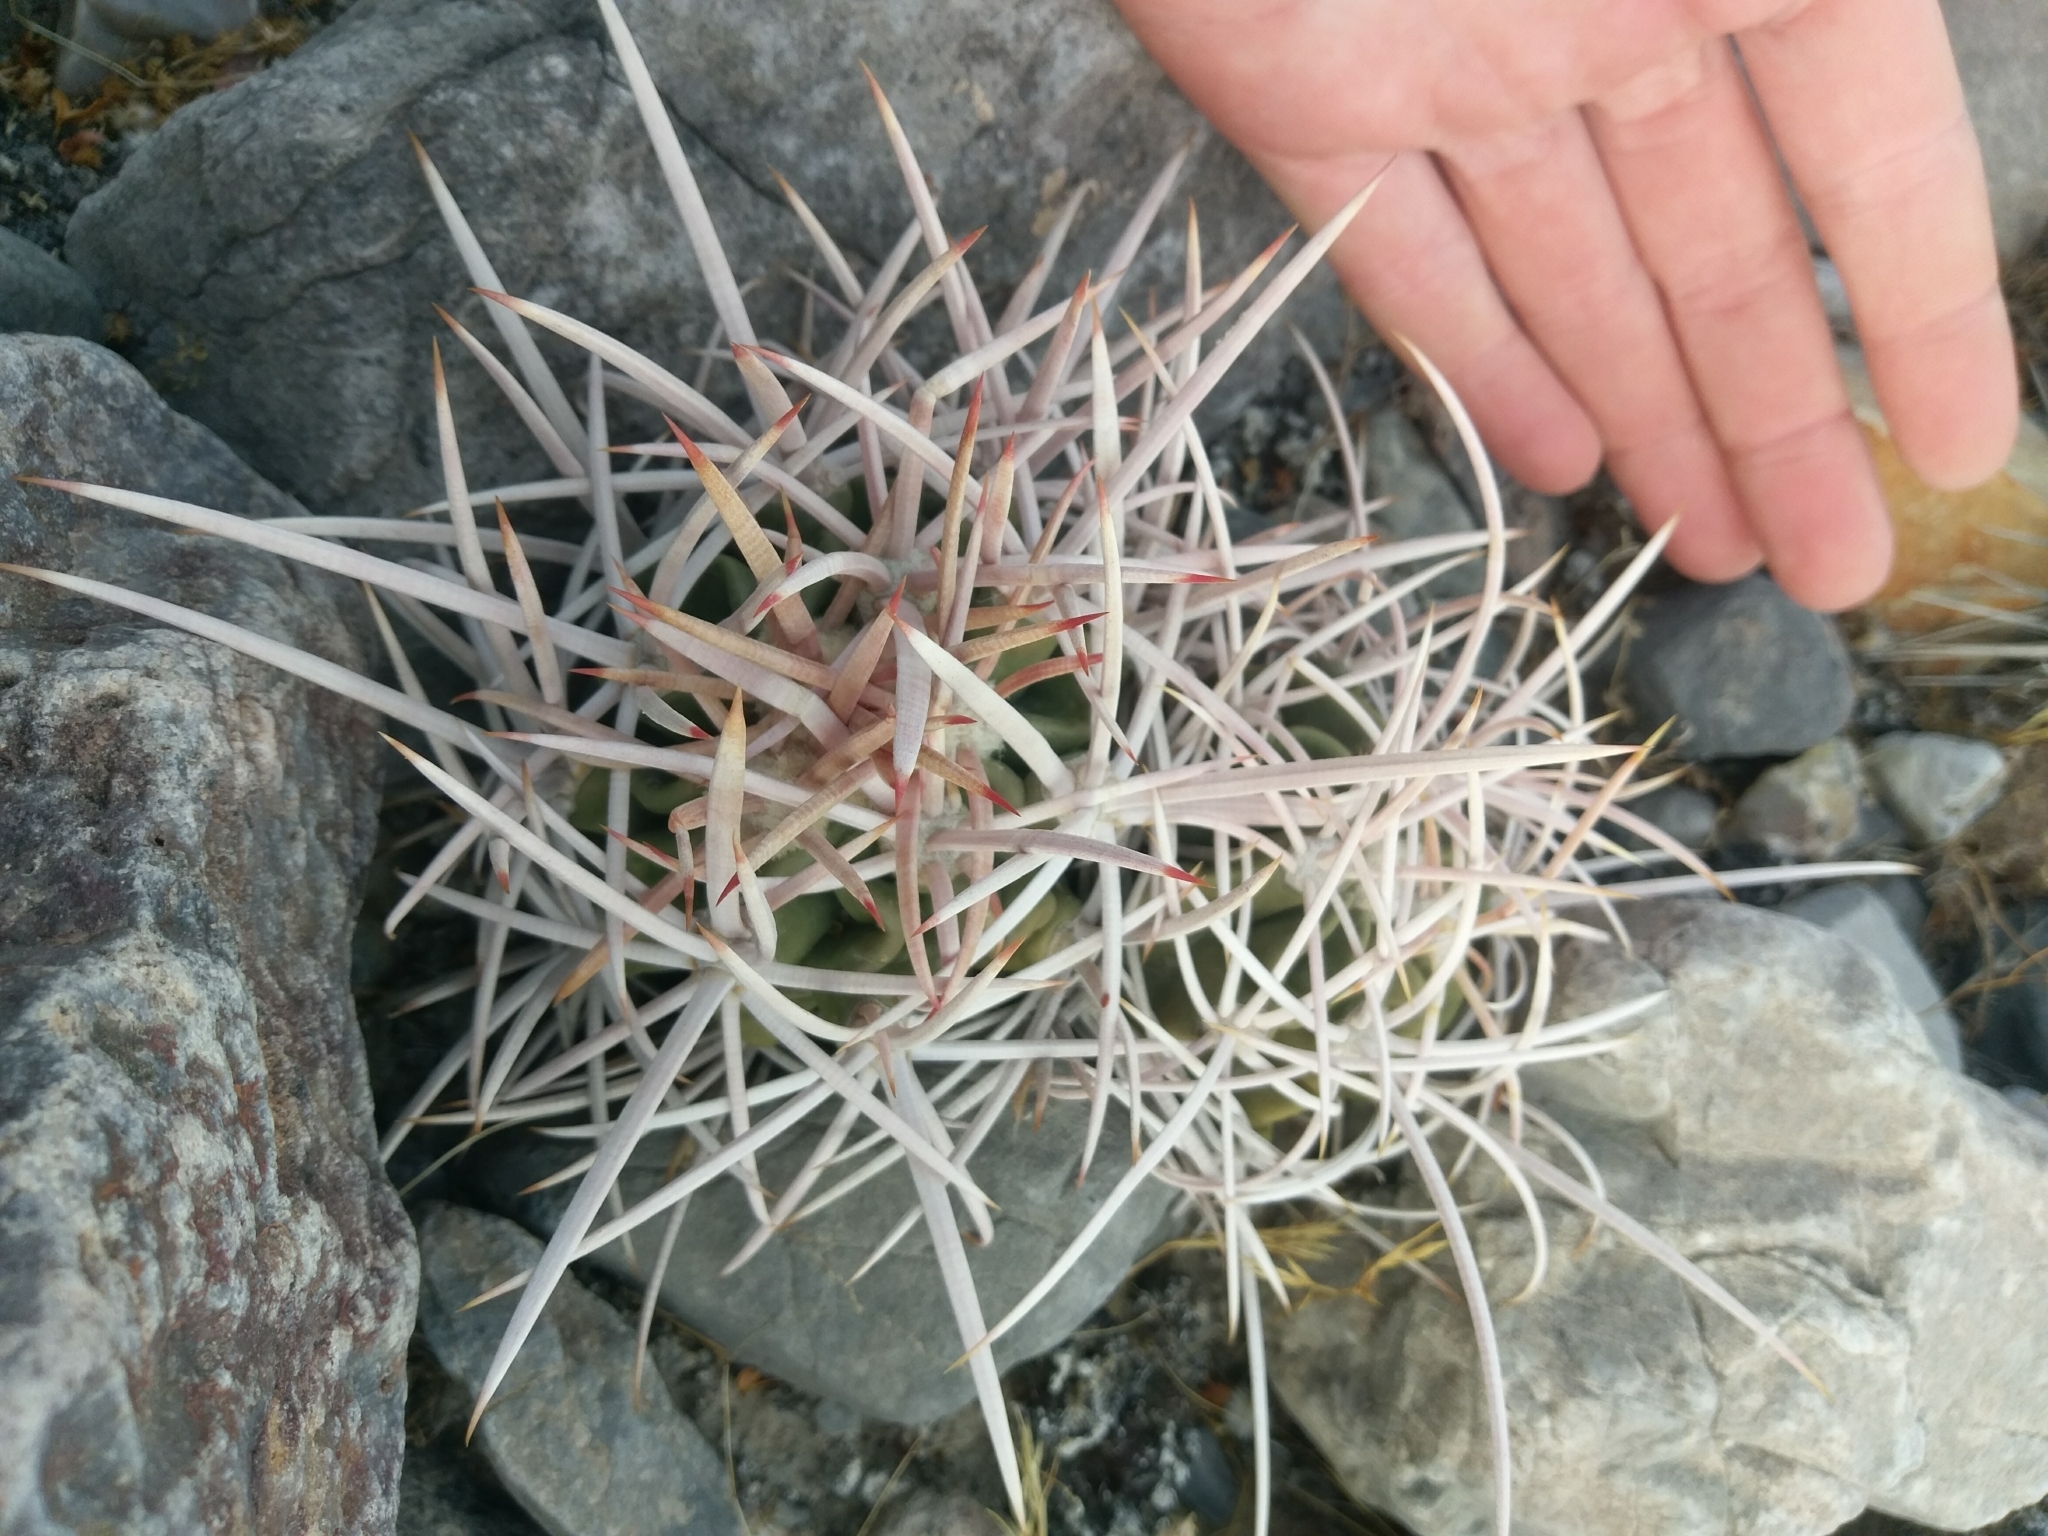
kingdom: Plantae
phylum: Tracheophyta
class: Magnoliopsida
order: Caryophyllales
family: Cactaceae
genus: Echinocactus
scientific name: Echinocactus polycephalus
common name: Cottontop cactus
